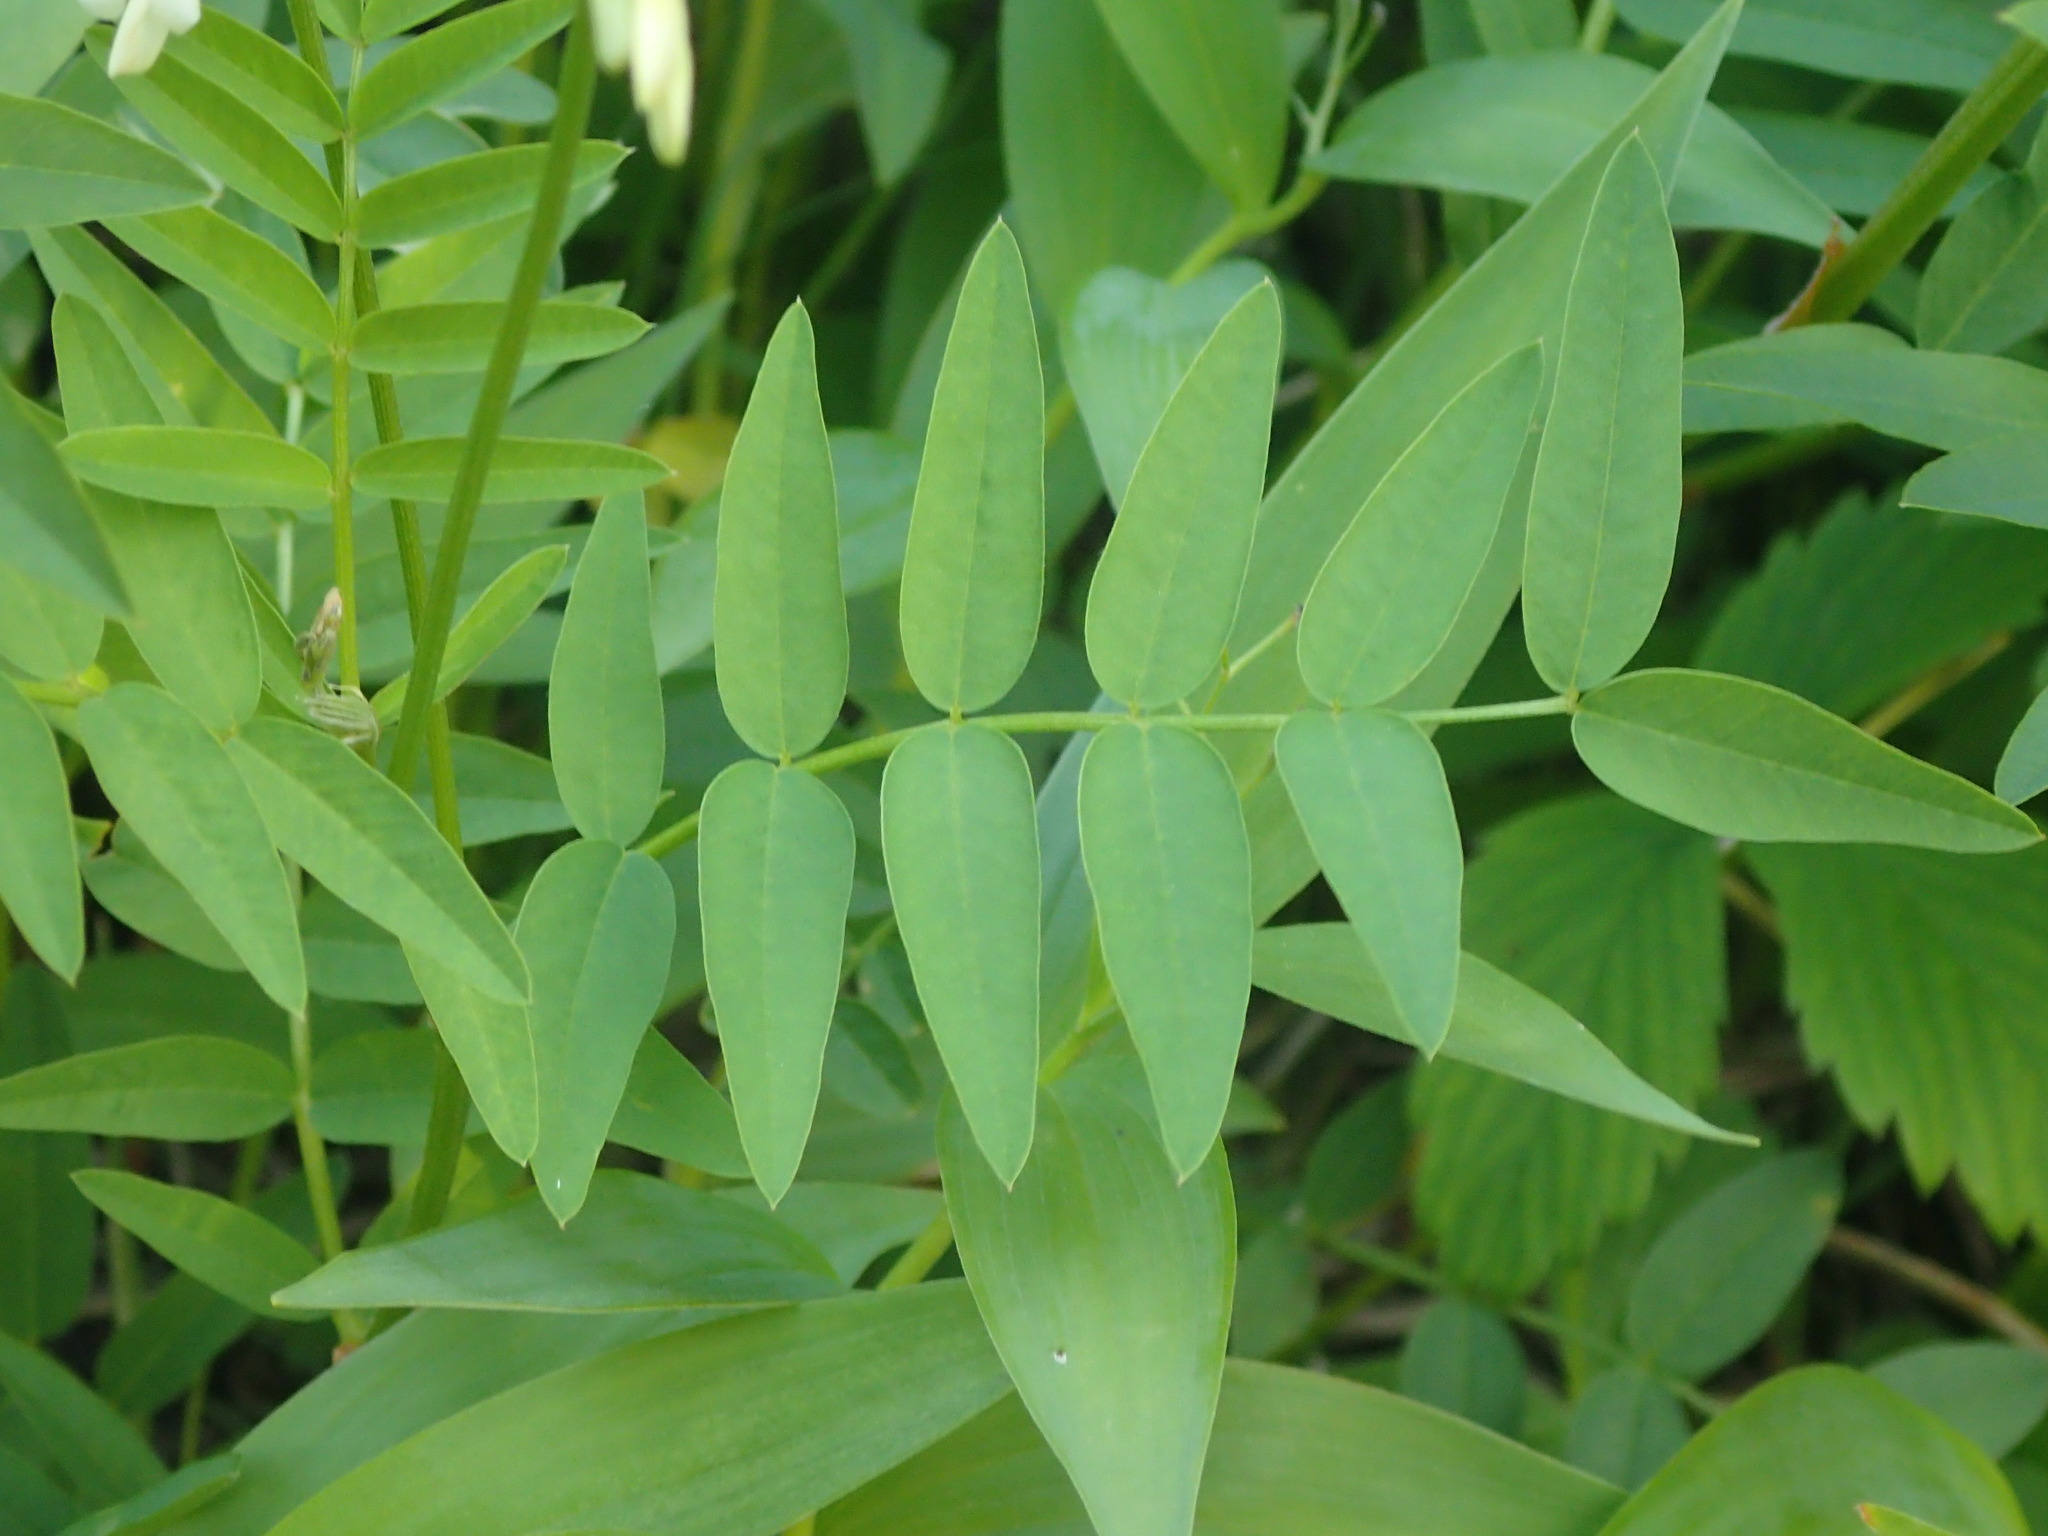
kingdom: Plantae
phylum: Tracheophyta
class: Magnoliopsida
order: Fabales
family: Fabaceae
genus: Hedysarum
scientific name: Hedysarum sulphurescens
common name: Sulphur hedysarum
